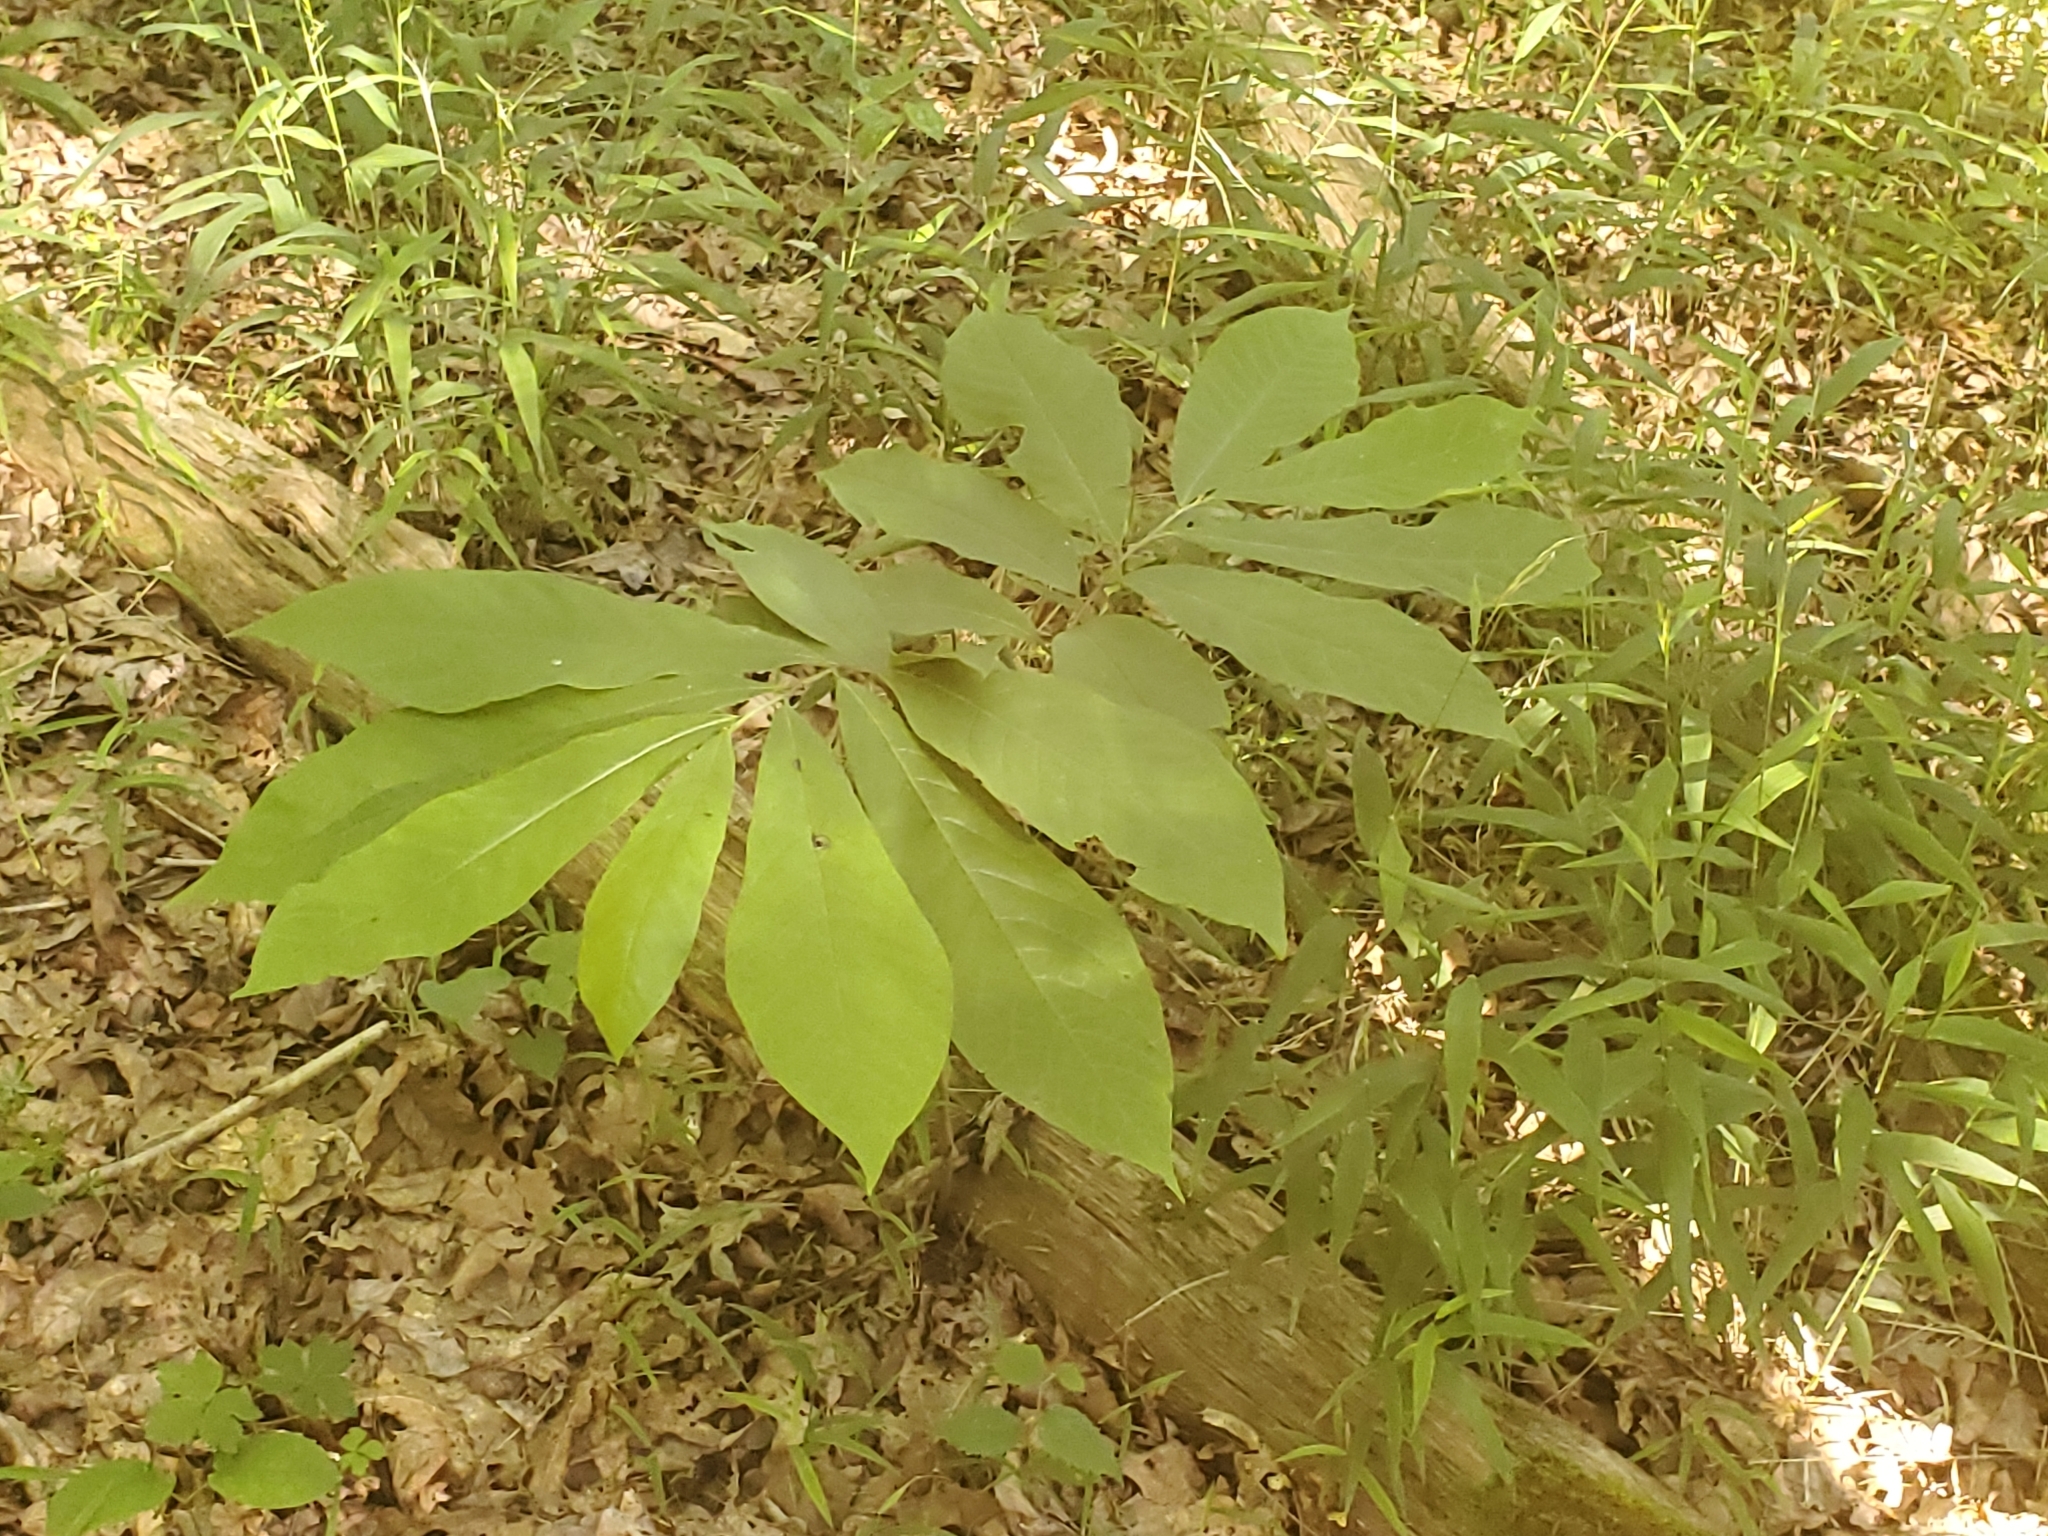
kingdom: Plantae
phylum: Tracheophyta
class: Magnoliopsida
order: Magnoliales
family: Annonaceae
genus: Asimina
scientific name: Asimina triloba
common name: Dog-banana
